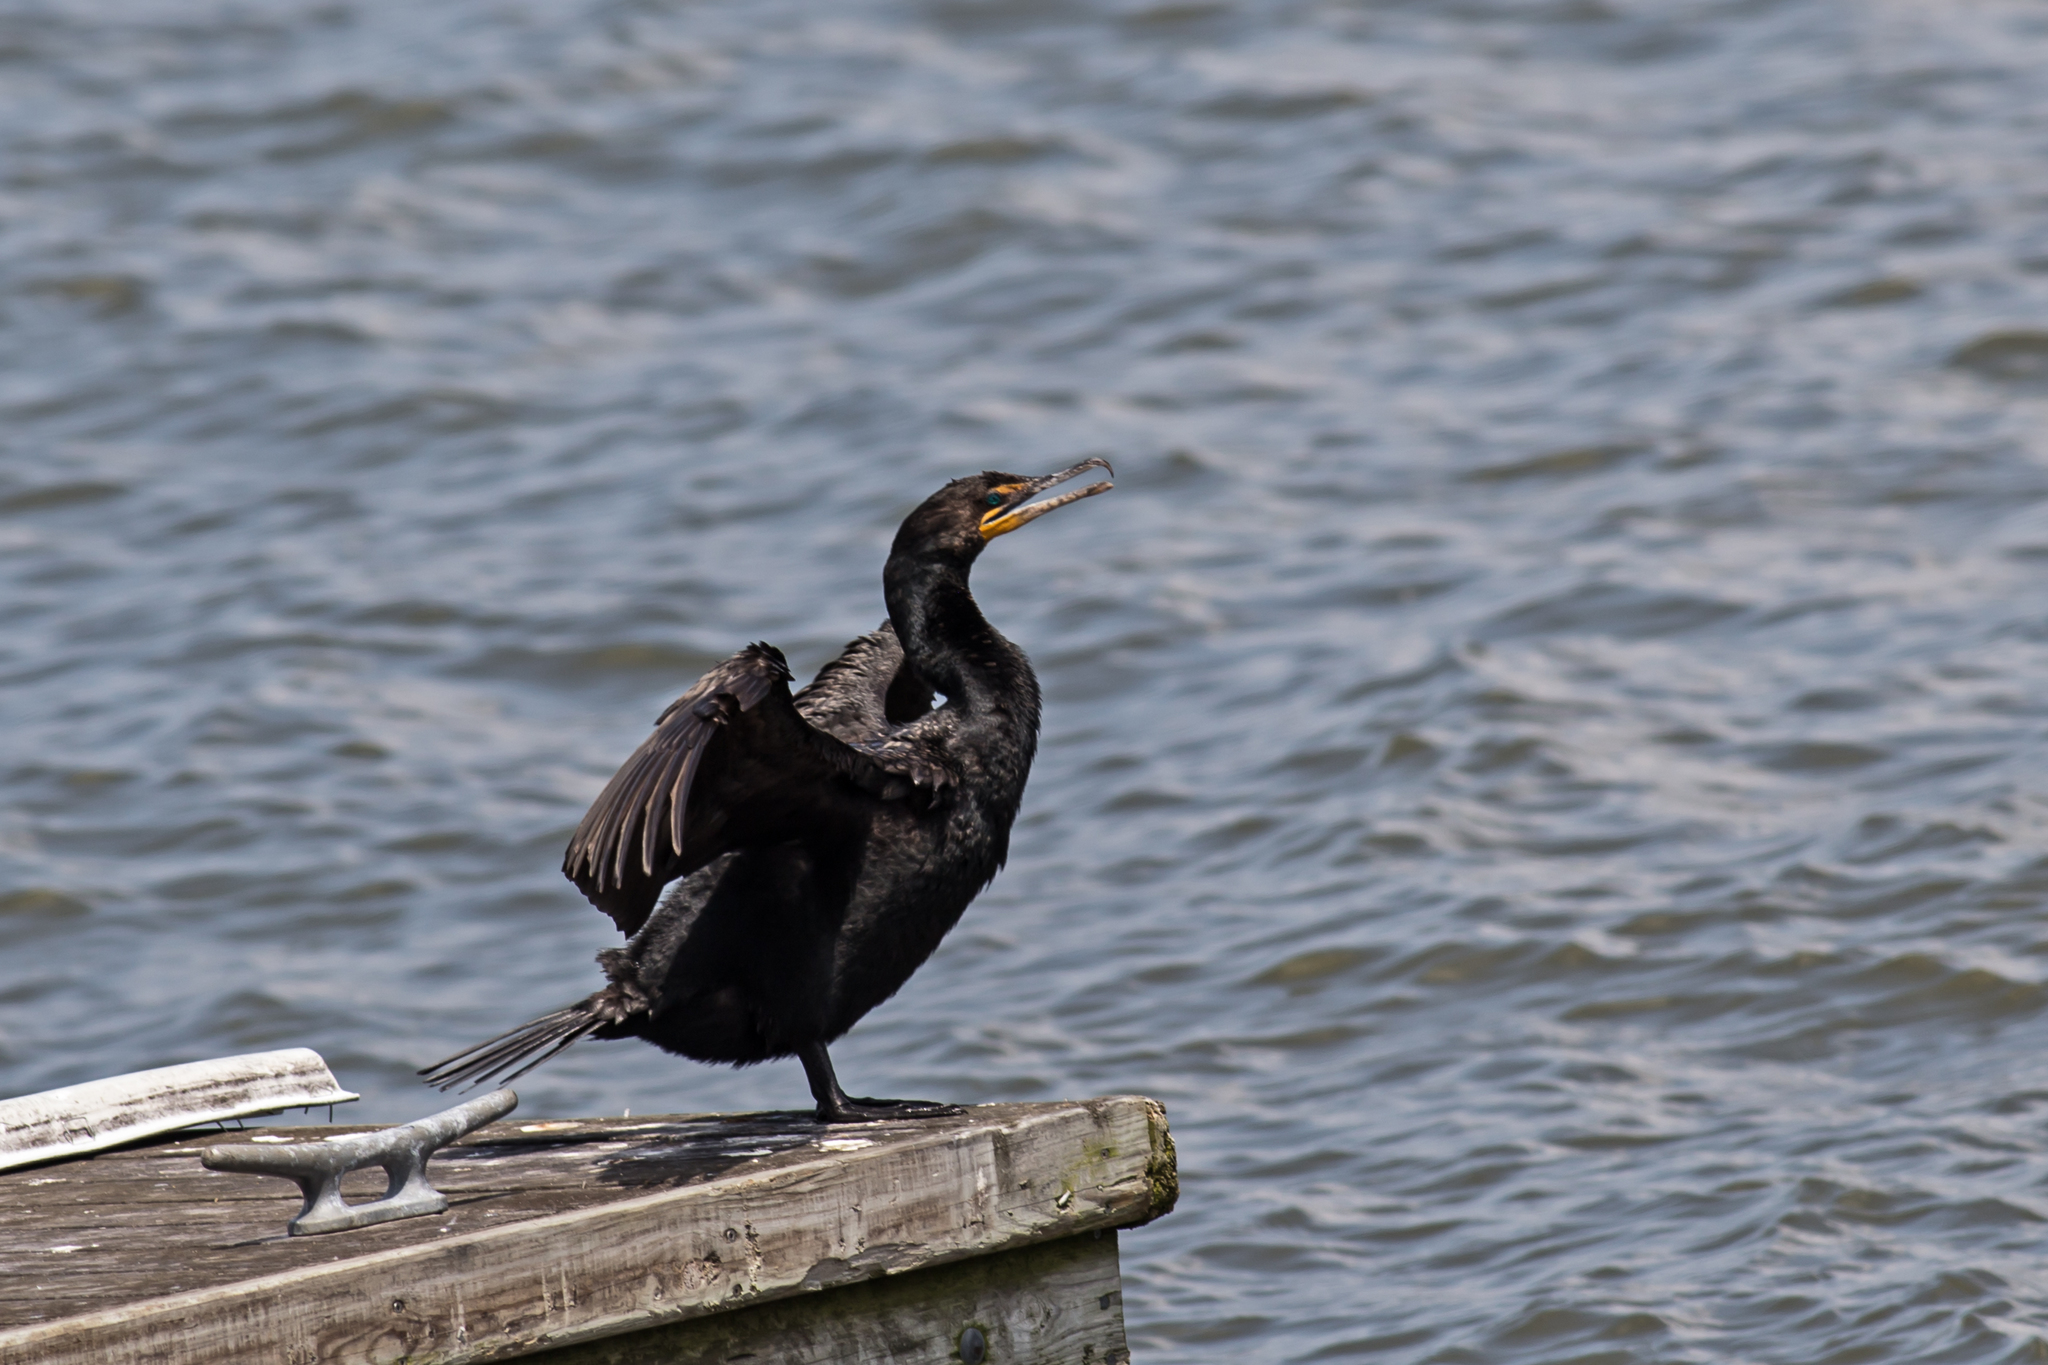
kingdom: Animalia
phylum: Chordata
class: Aves
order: Suliformes
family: Phalacrocoracidae
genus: Phalacrocorax
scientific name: Phalacrocorax auritus
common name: Double-crested cormorant
